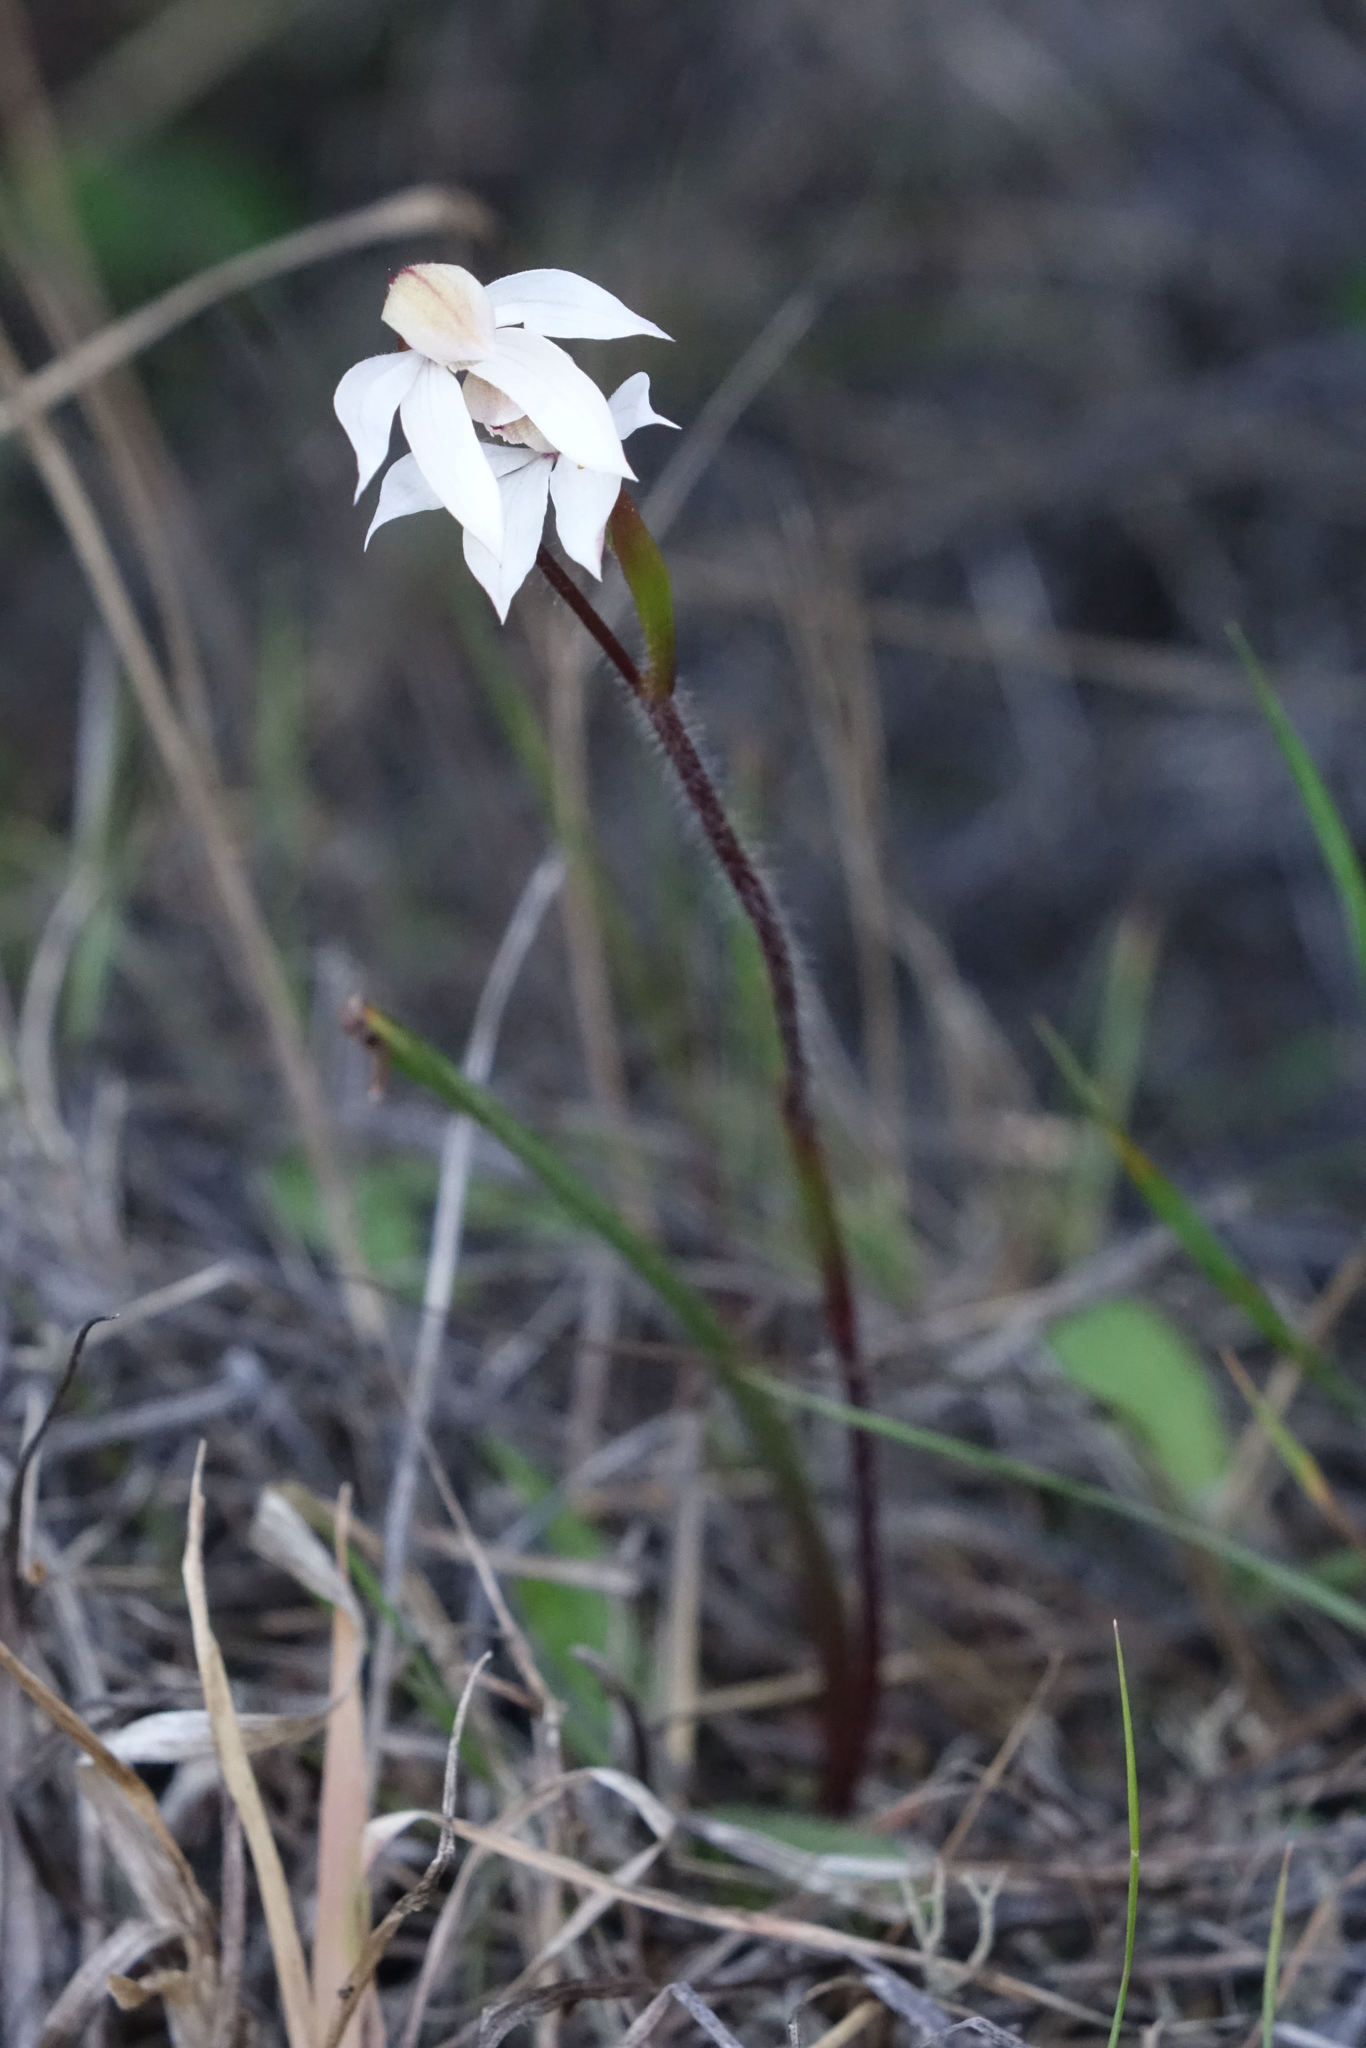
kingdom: Plantae
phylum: Tracheophyta
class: Liliopsida
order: Asparagales
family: Orchidaceae
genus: Caladenia
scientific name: Caladenia lyallii
